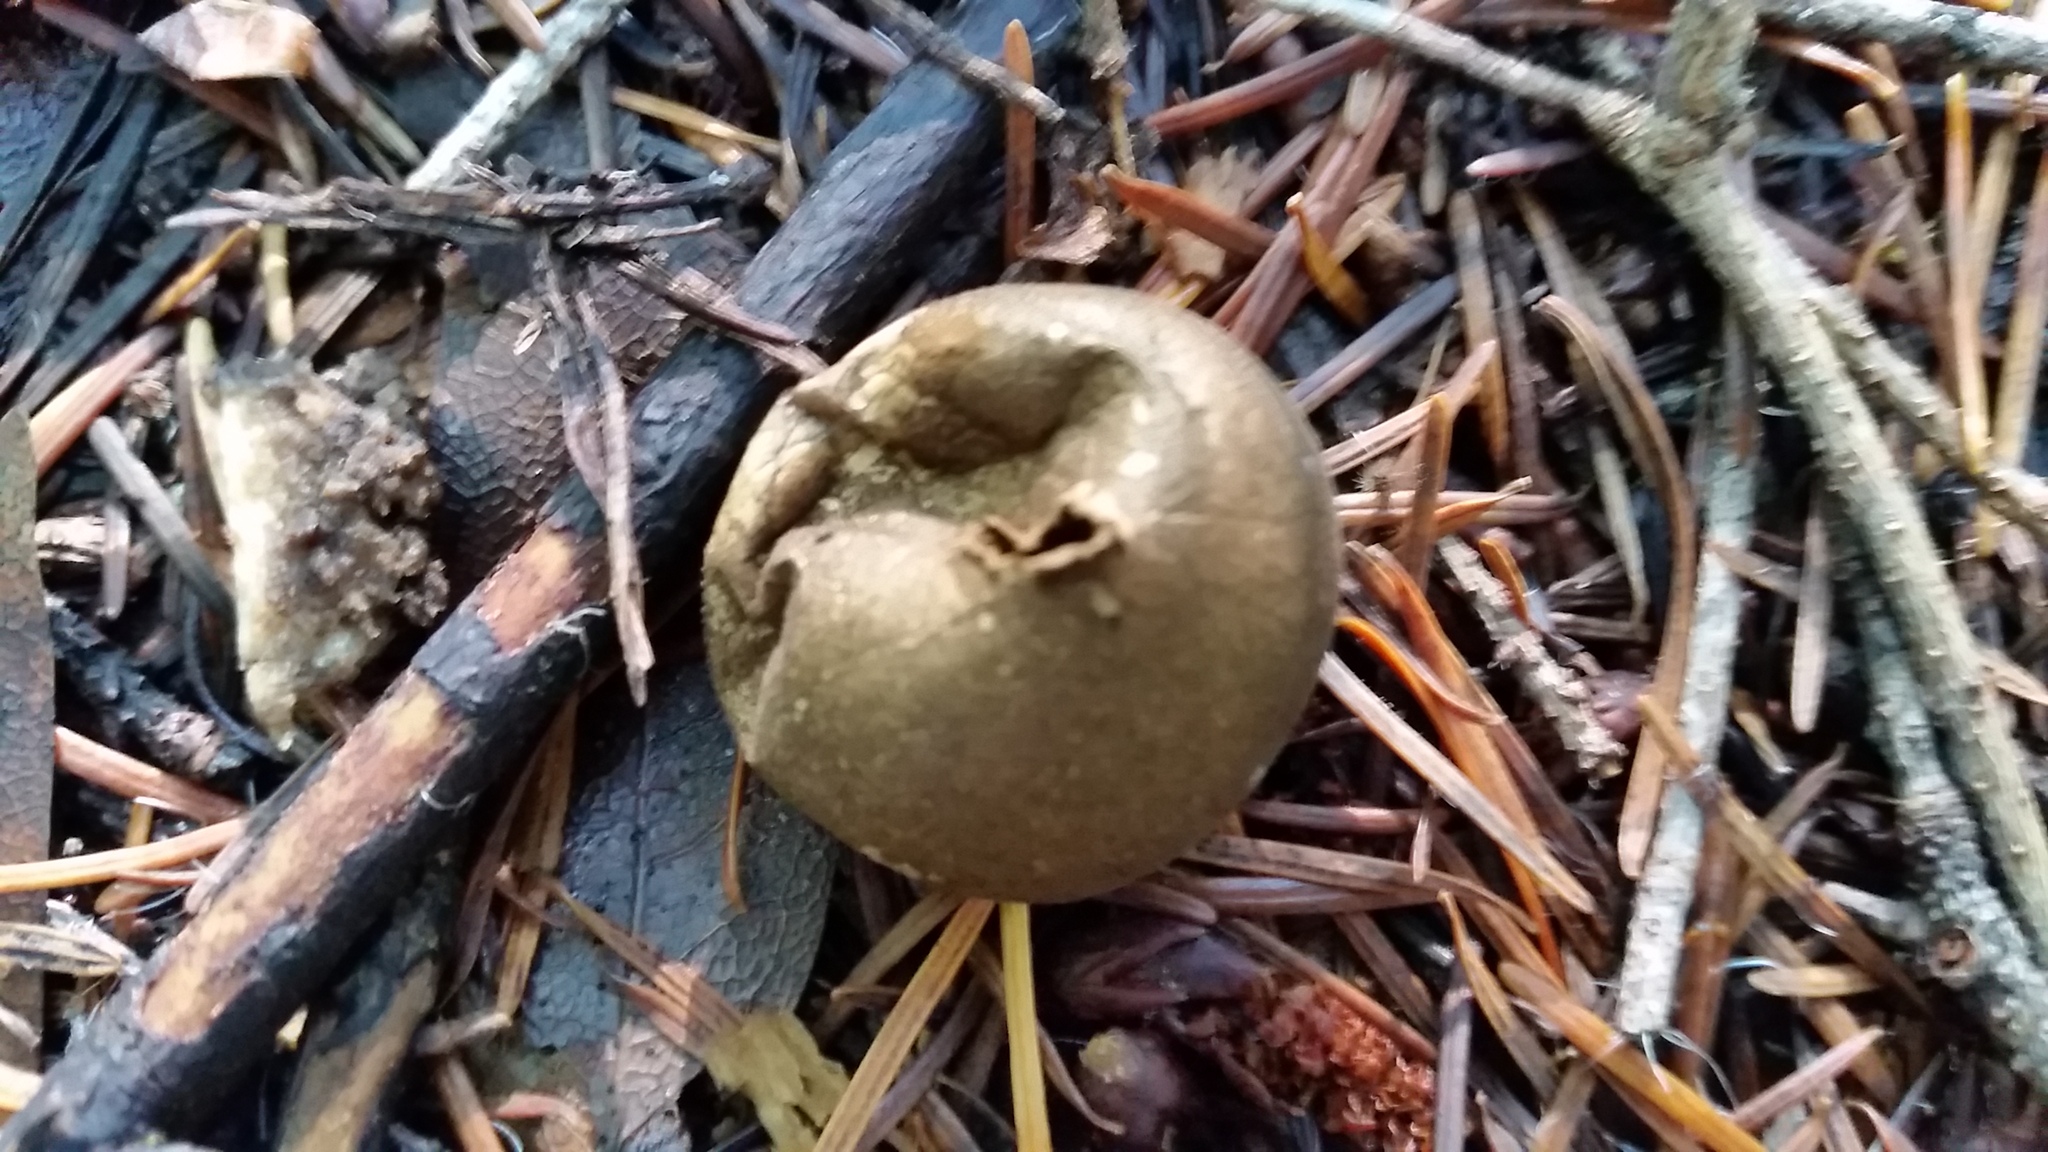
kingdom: Fungi
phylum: Basidiomycota
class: Agaricomycetes
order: Agaricales
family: Lycoperdaceae
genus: Lycoperdon
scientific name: Lycoperdon umbrinum
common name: Umber-brown puffball
